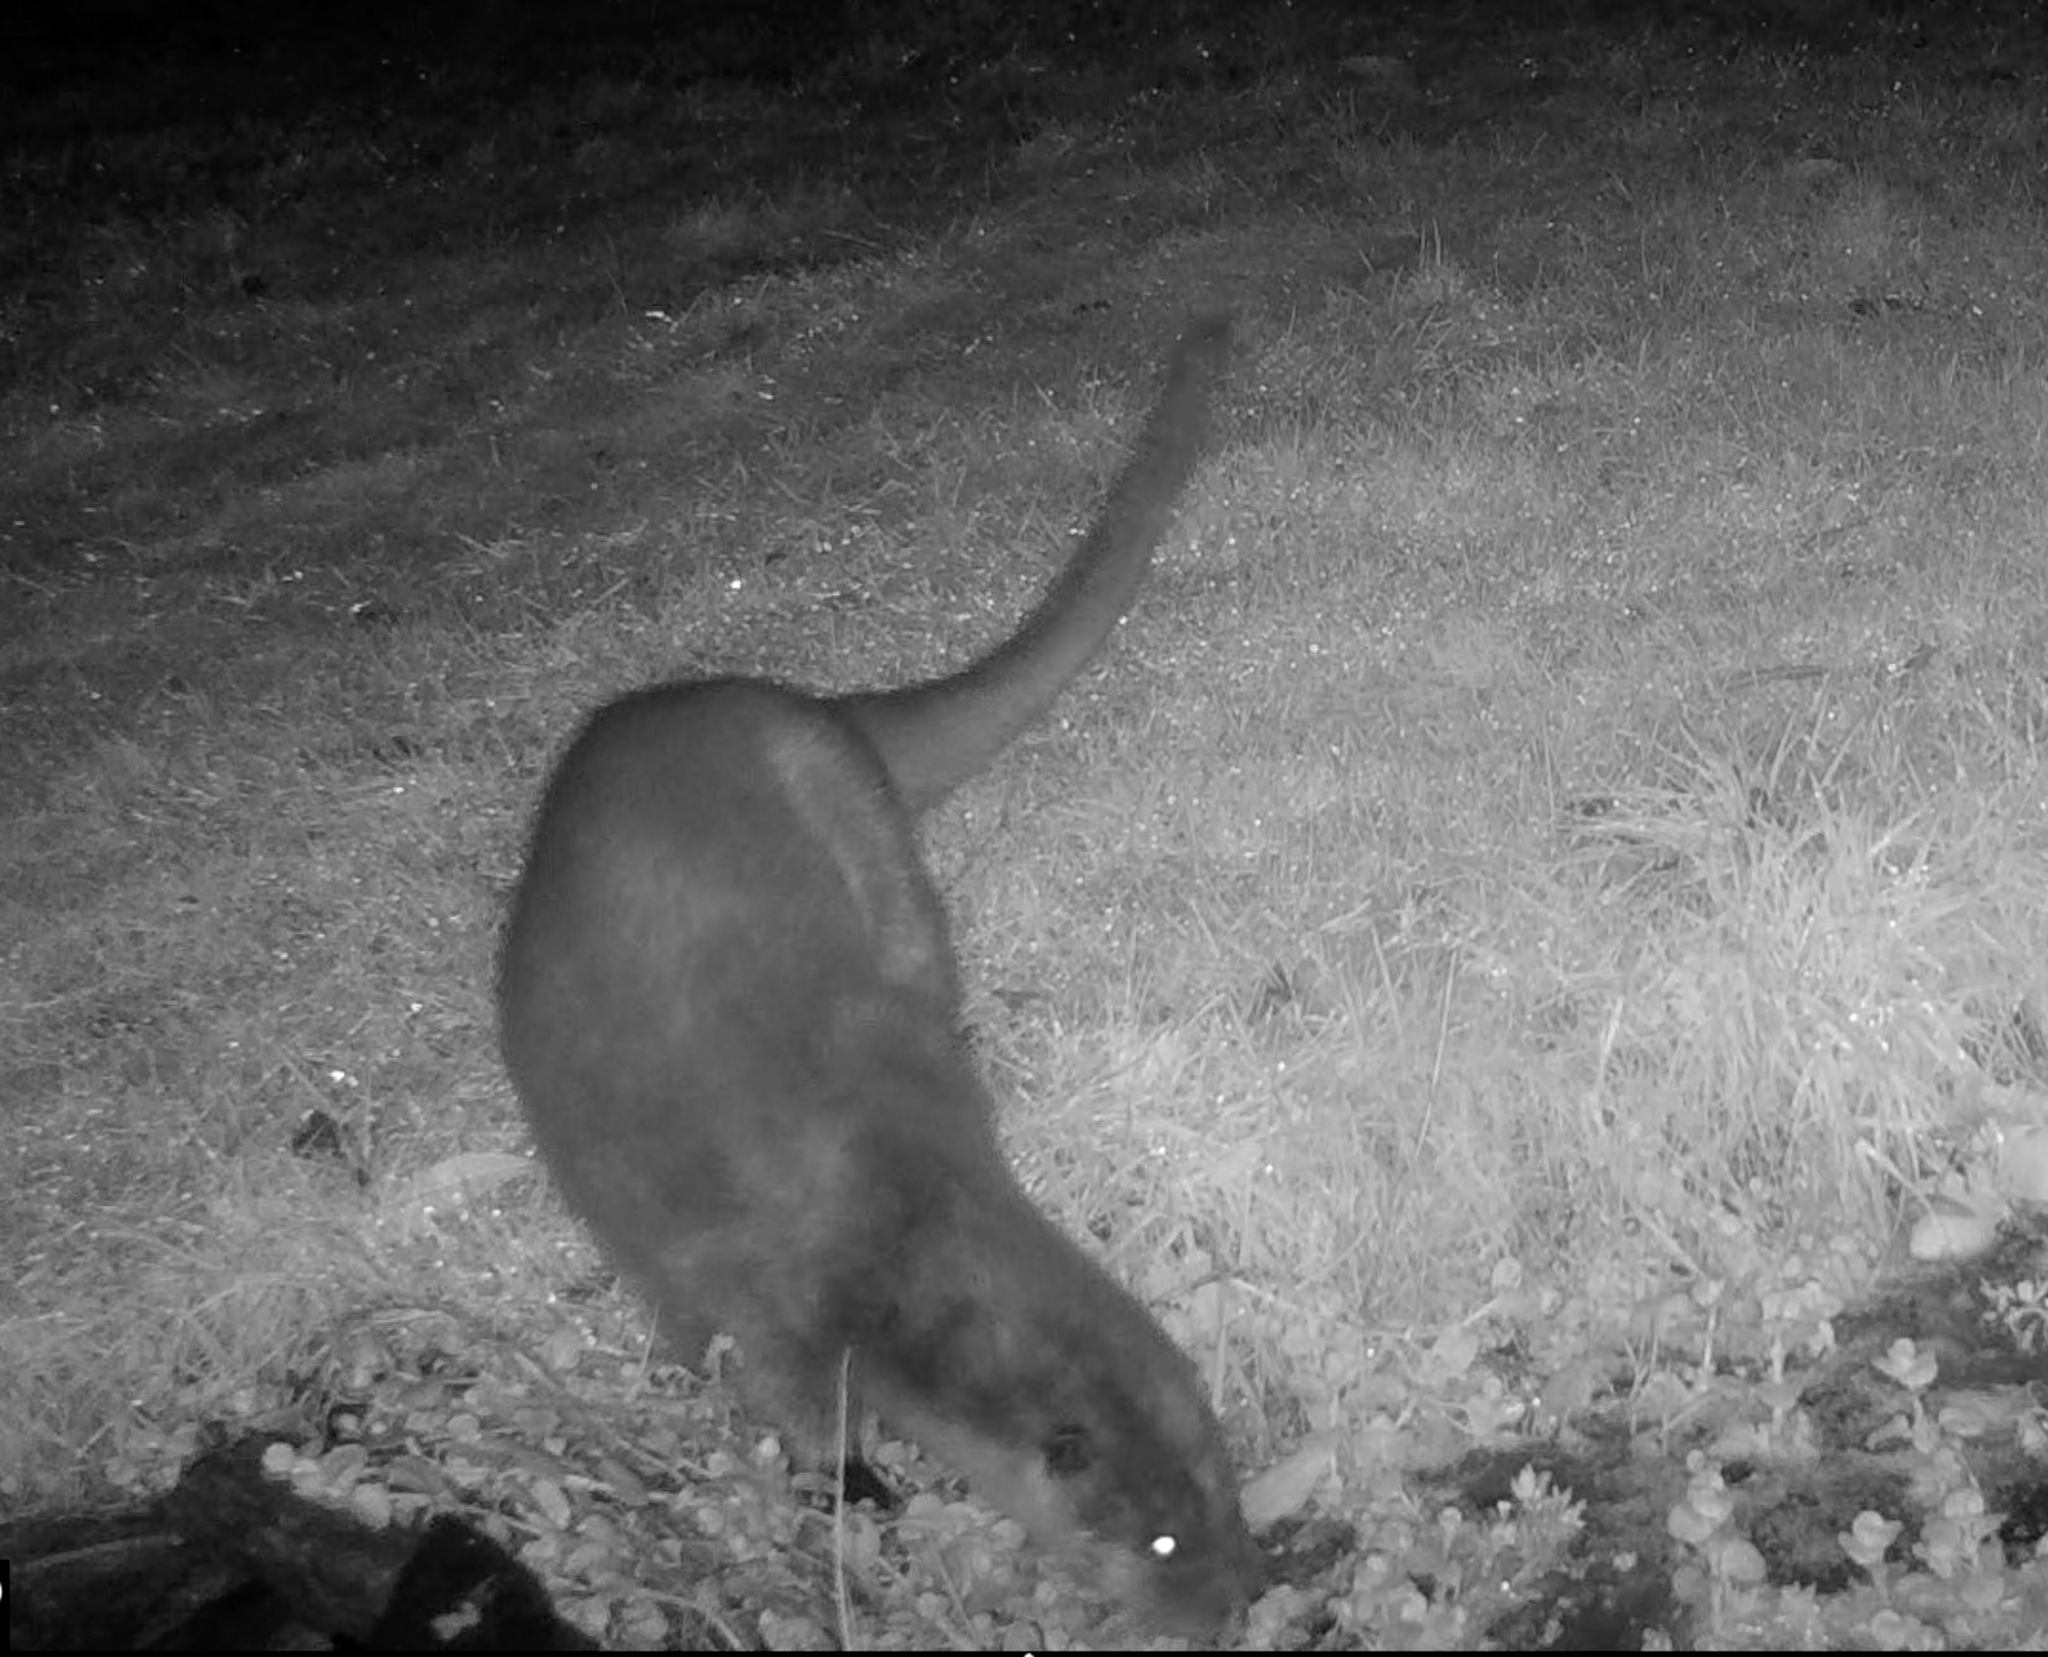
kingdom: Animalia
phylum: Chordata
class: Mammalia
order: Carnivora
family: Mustelidae
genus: Lutra
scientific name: Lutra lutra
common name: European otter
